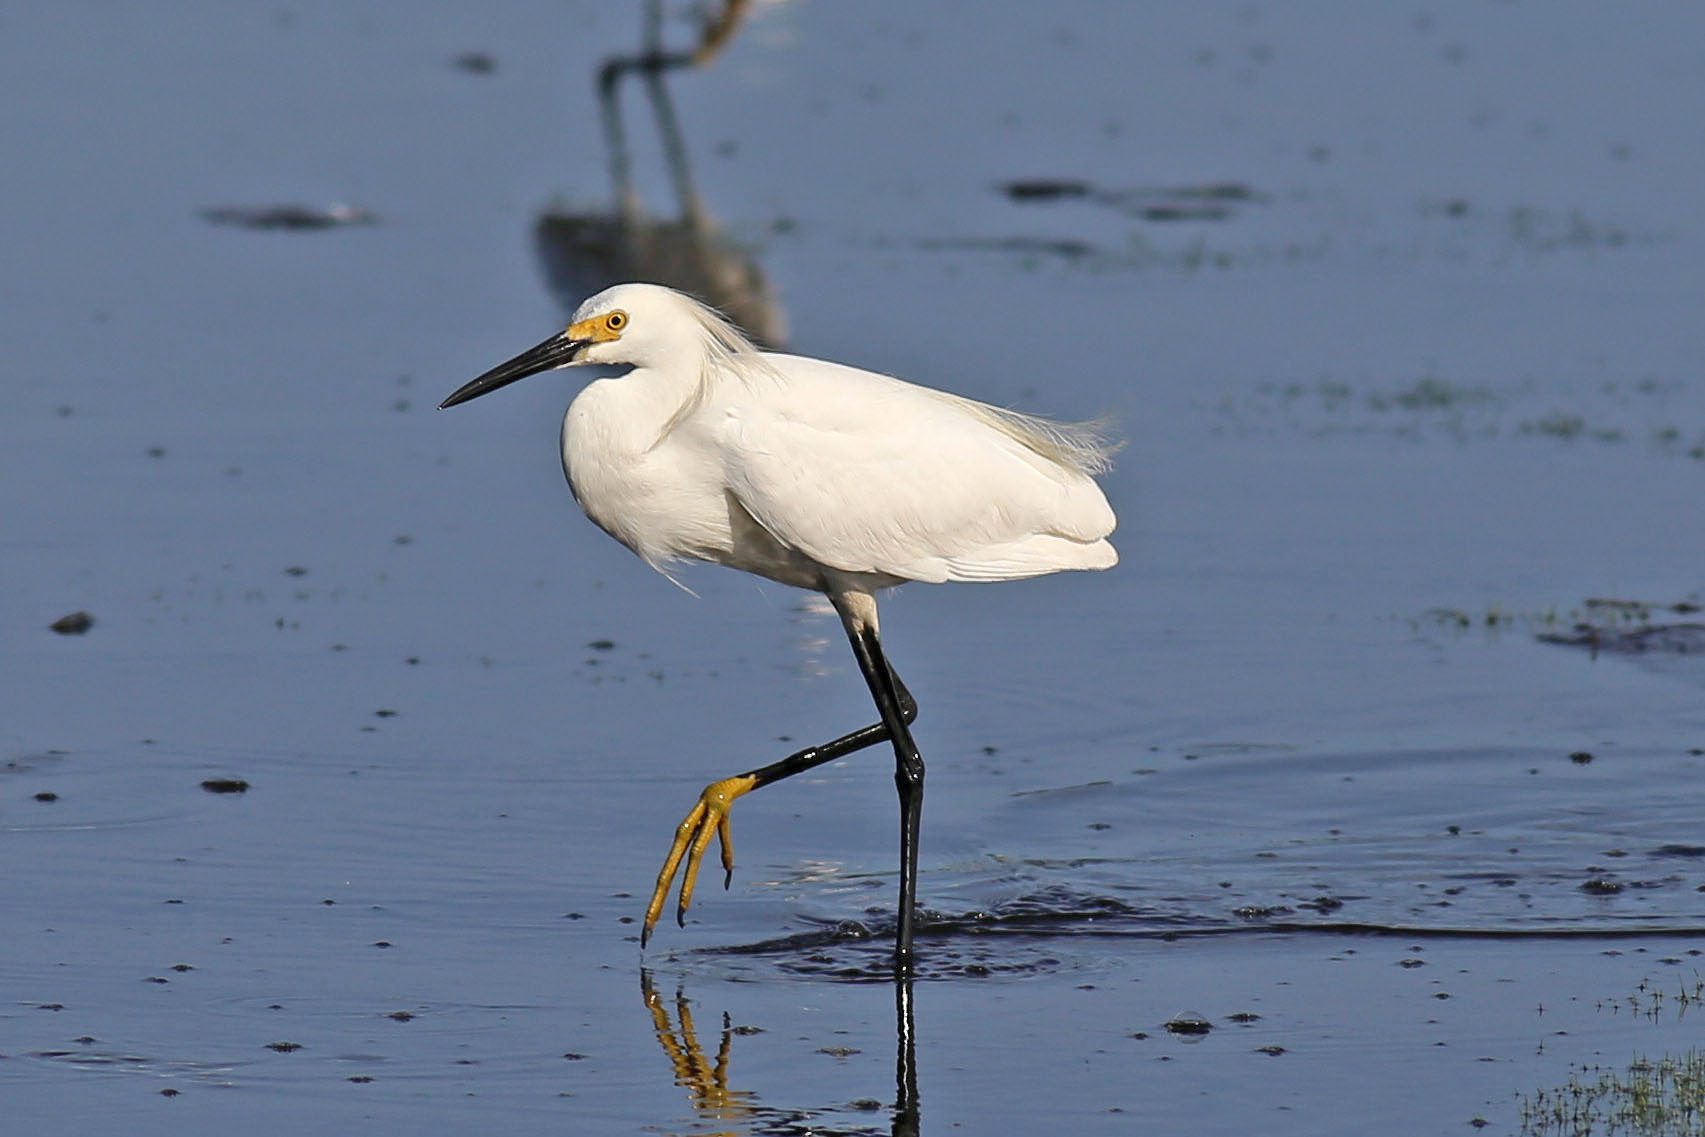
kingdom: Animalia
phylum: Chordata
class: Aves
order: Pelecaniformes
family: Ardeidae
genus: Egretta
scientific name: Egretta thula
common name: Snowy egret
